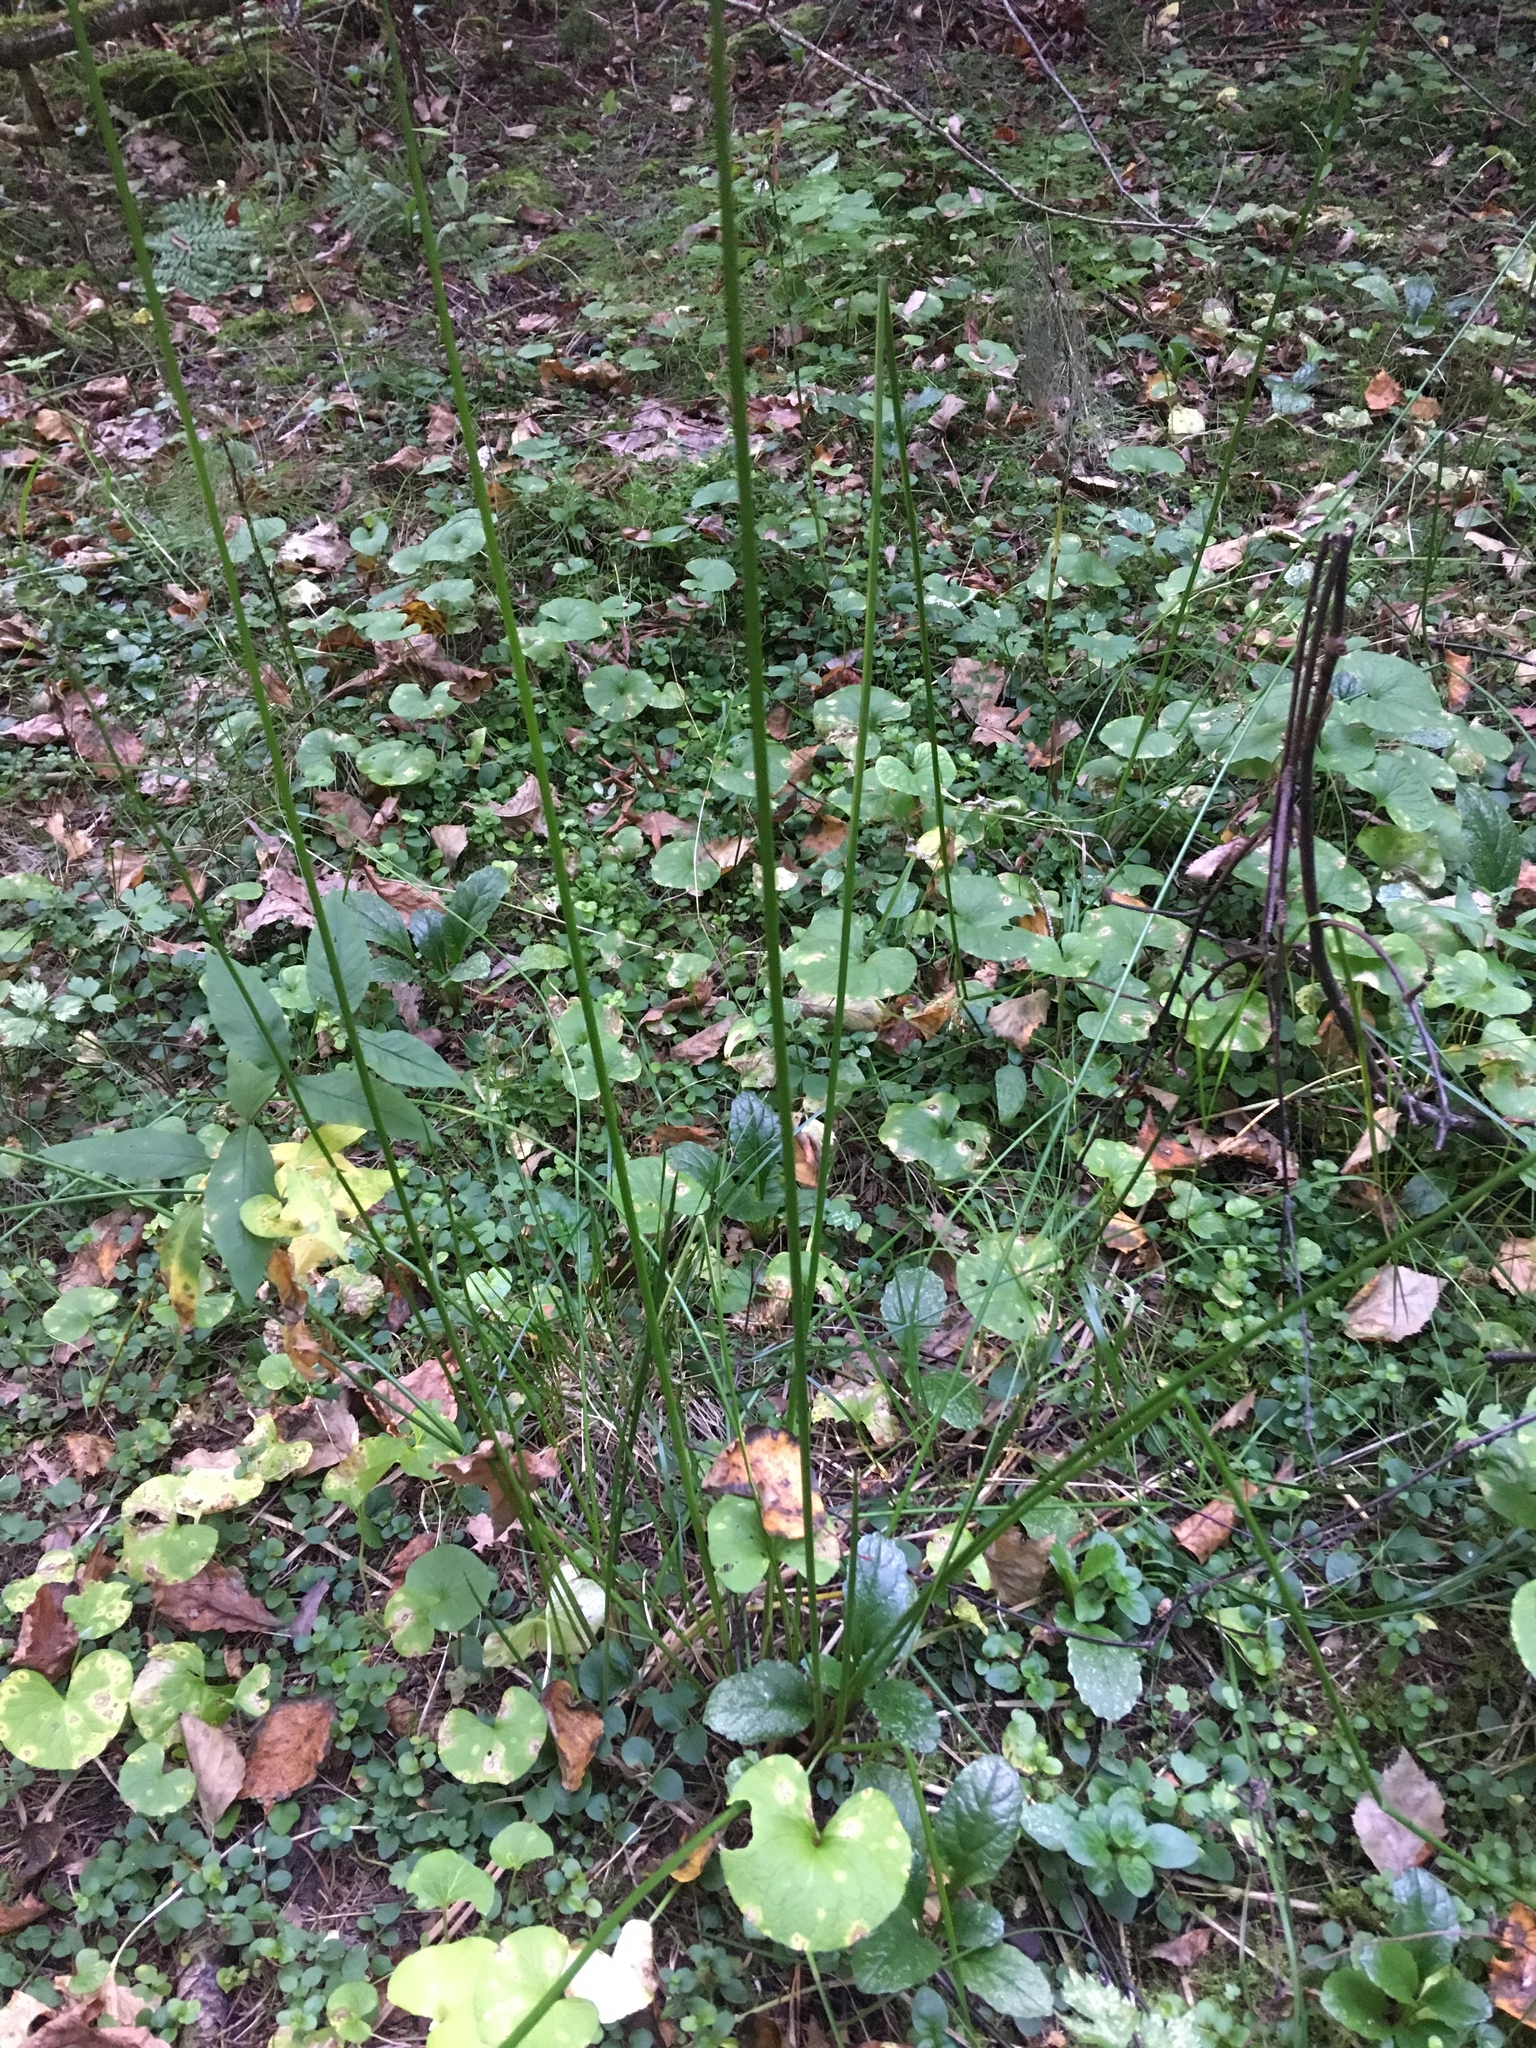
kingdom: Plantae
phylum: Tracheophyta
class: Liliopsida
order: Poales
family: Juncaceae
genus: Juncus
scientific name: Juncus effusus
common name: Soft rush
